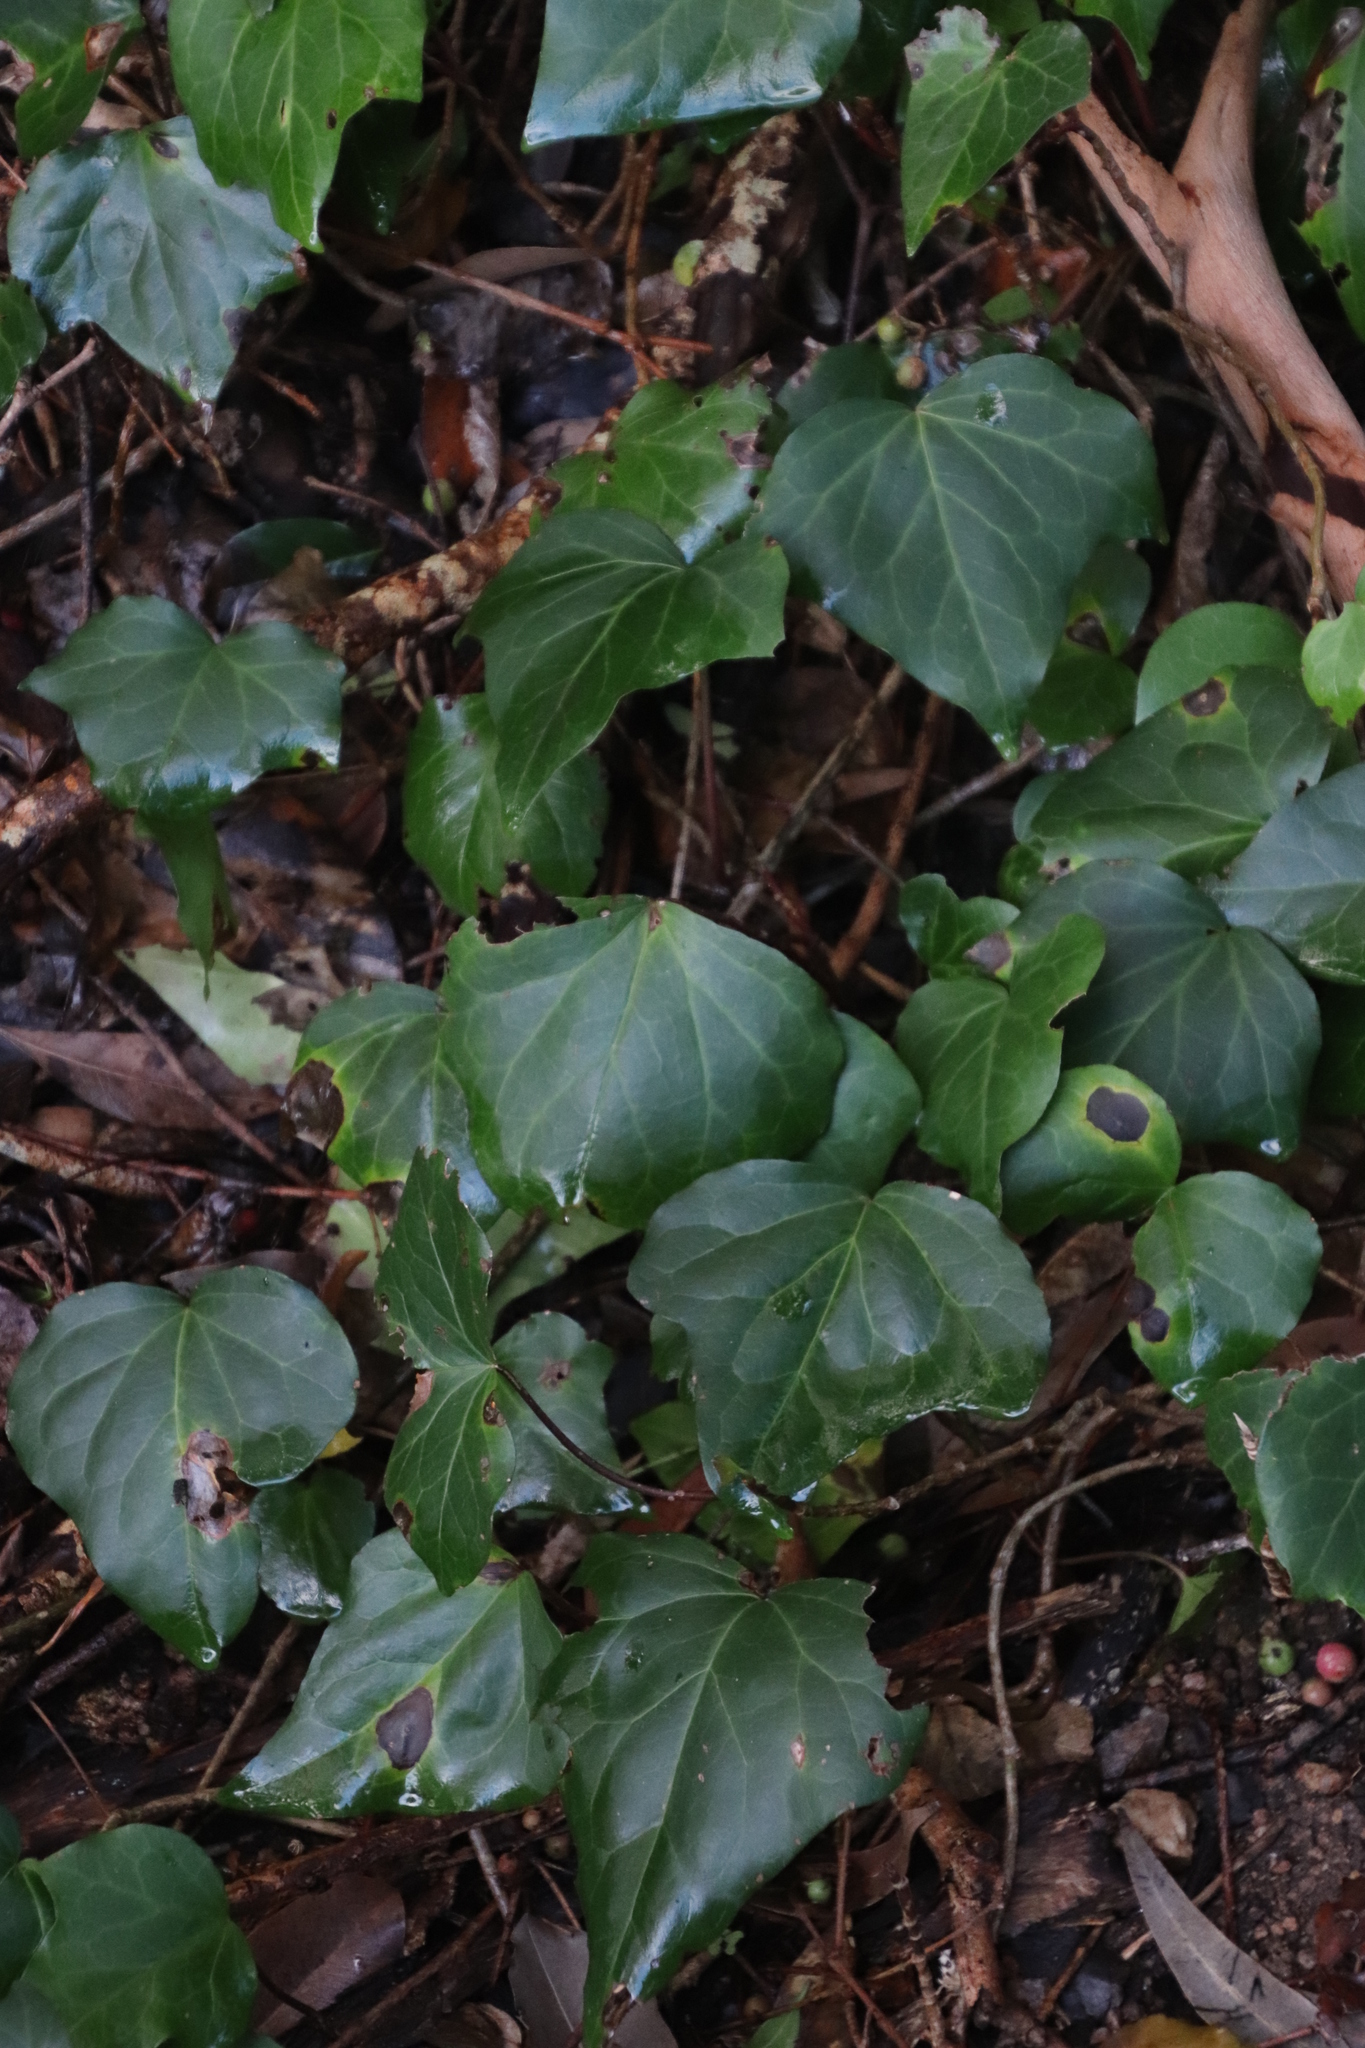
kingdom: Plantae
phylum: Tracheophyta
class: Magnoliopsida
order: Apiales
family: Araliaceae
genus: Hedera
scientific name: Hedera canariensis
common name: Madeira ivy
